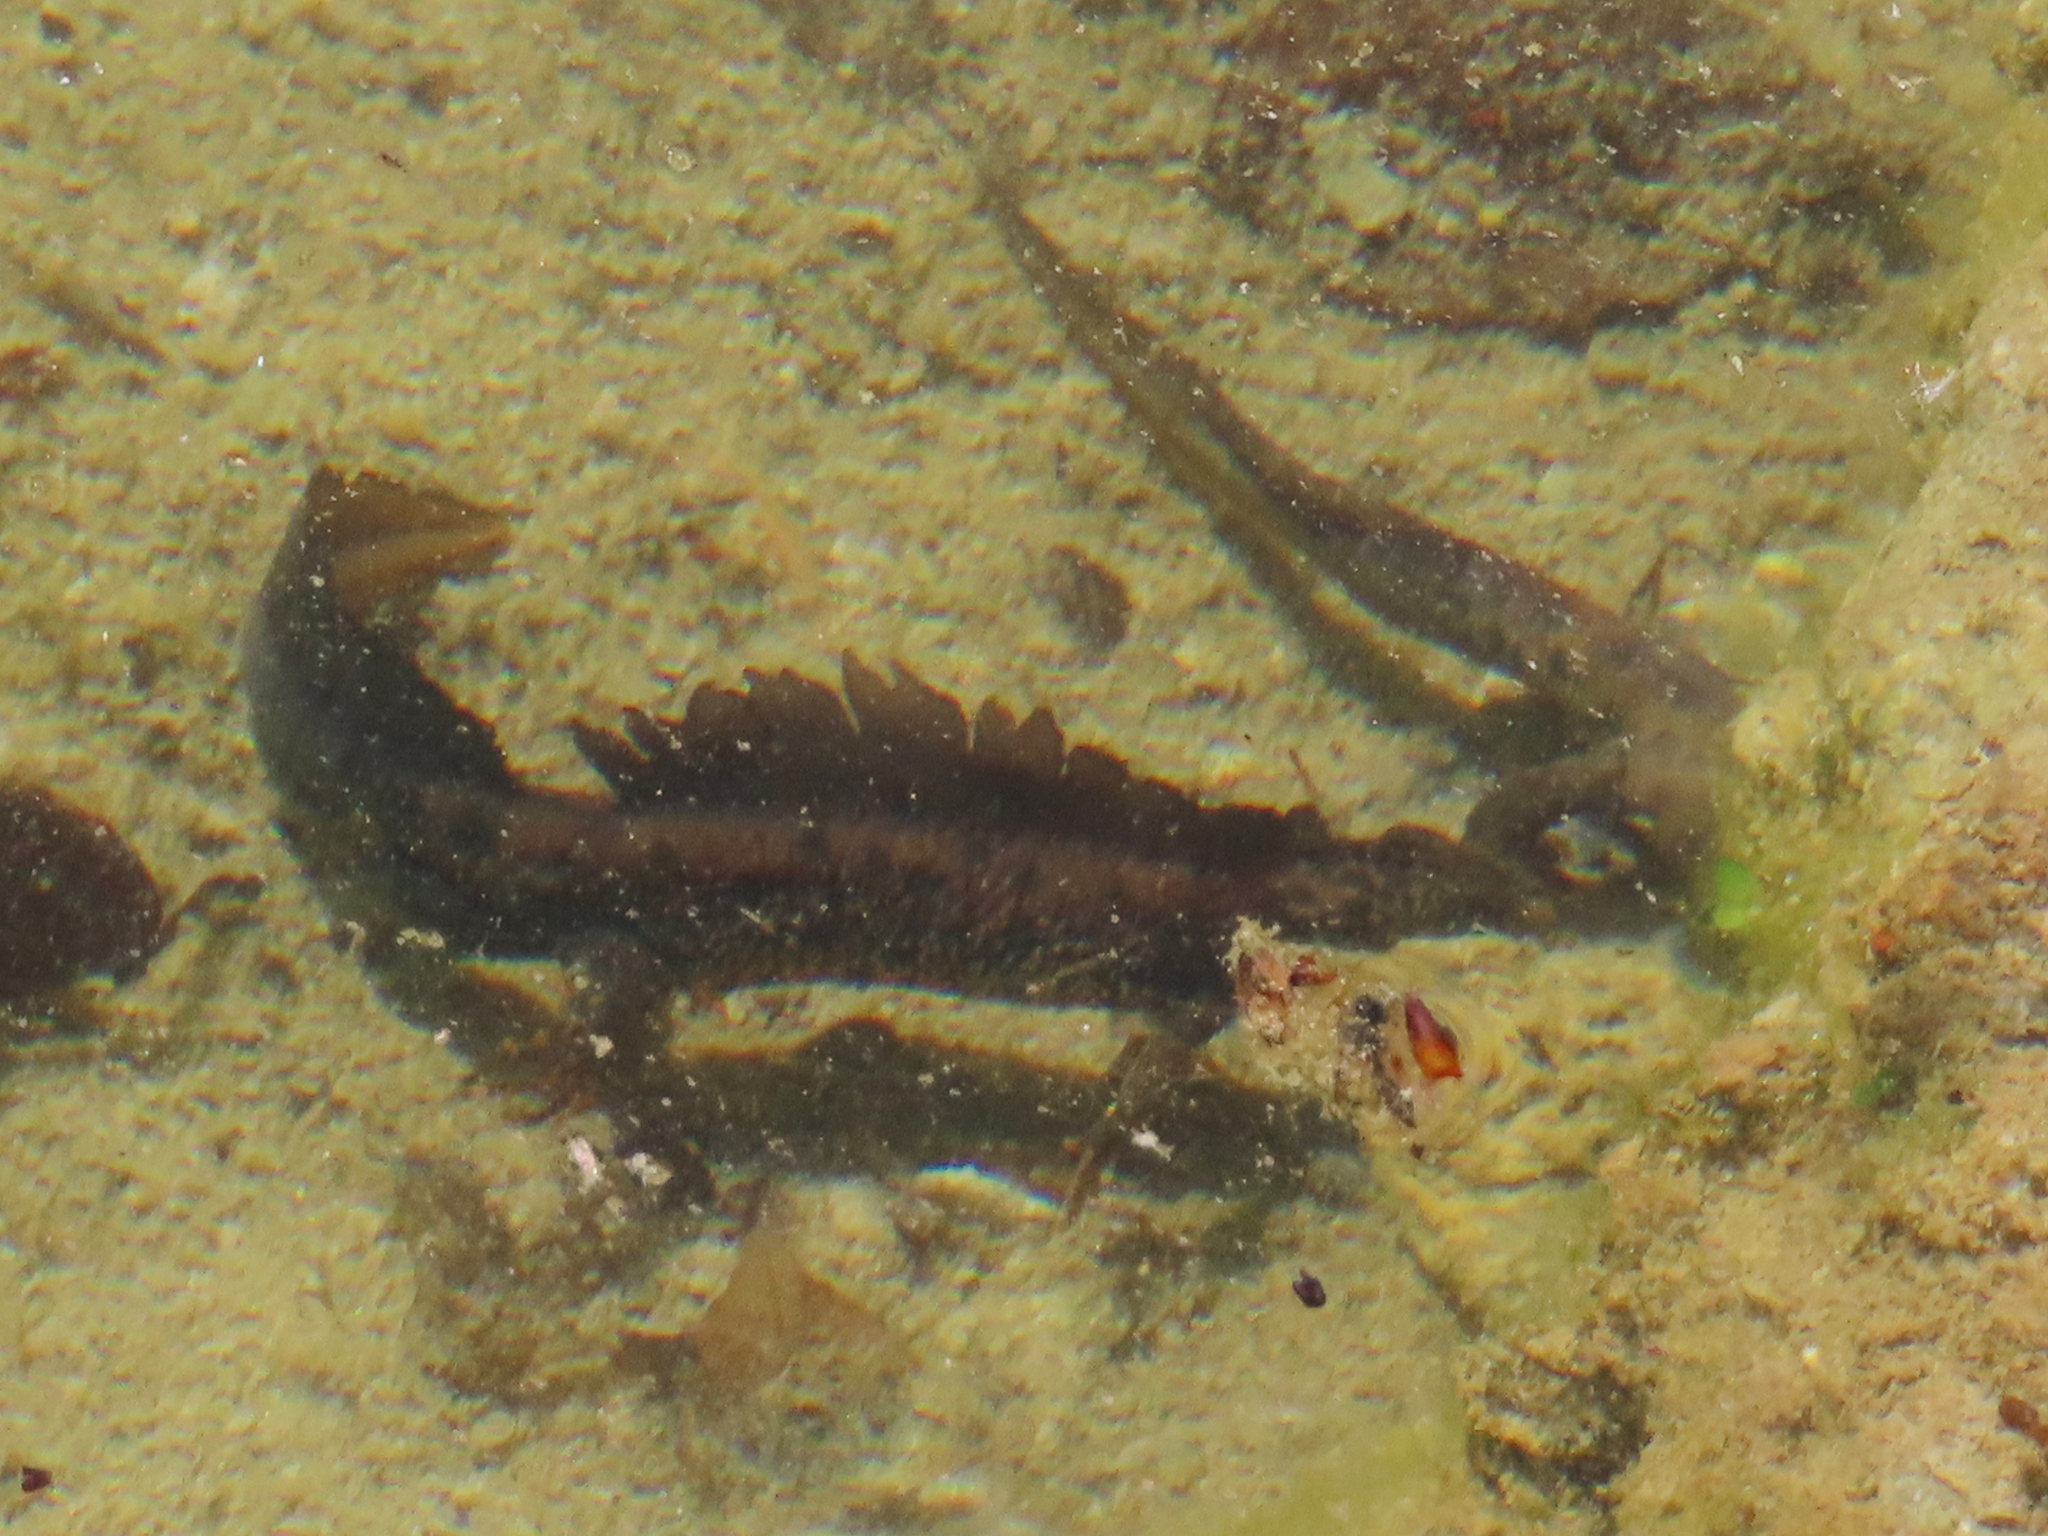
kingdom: Animalia
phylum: Chordata
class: Amphibia
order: Caudata
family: Salamandridae
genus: Triturus
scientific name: Triturus cristatus
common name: Crested newt
